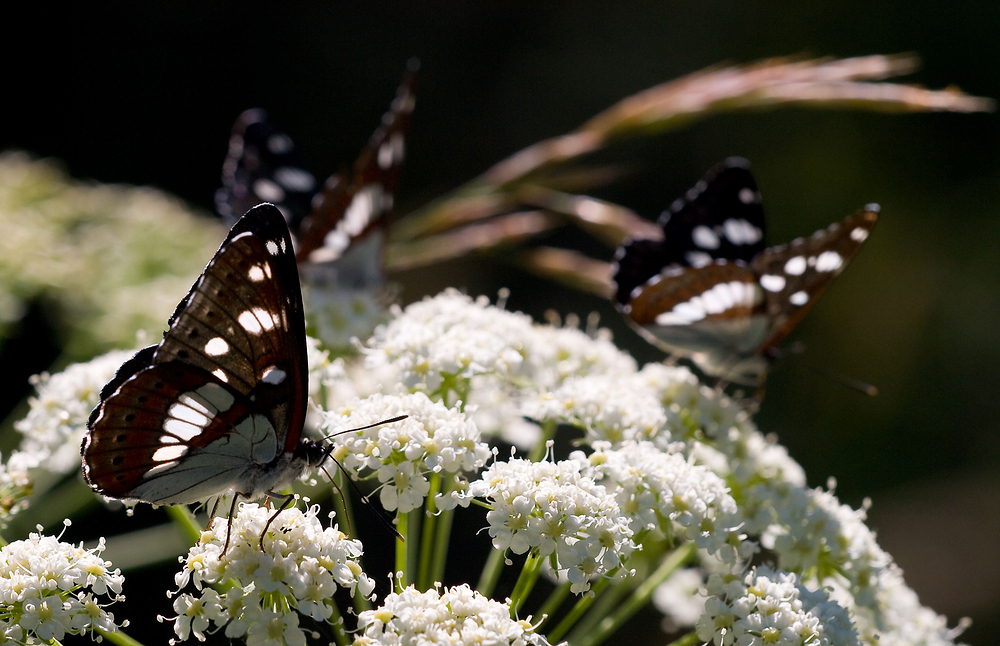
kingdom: Animalia
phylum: Arthropoda
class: Insecta
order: Lepidoptera
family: Nymphalidae
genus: Limenitis
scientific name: Limenitis reducta
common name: Southern white admiral
